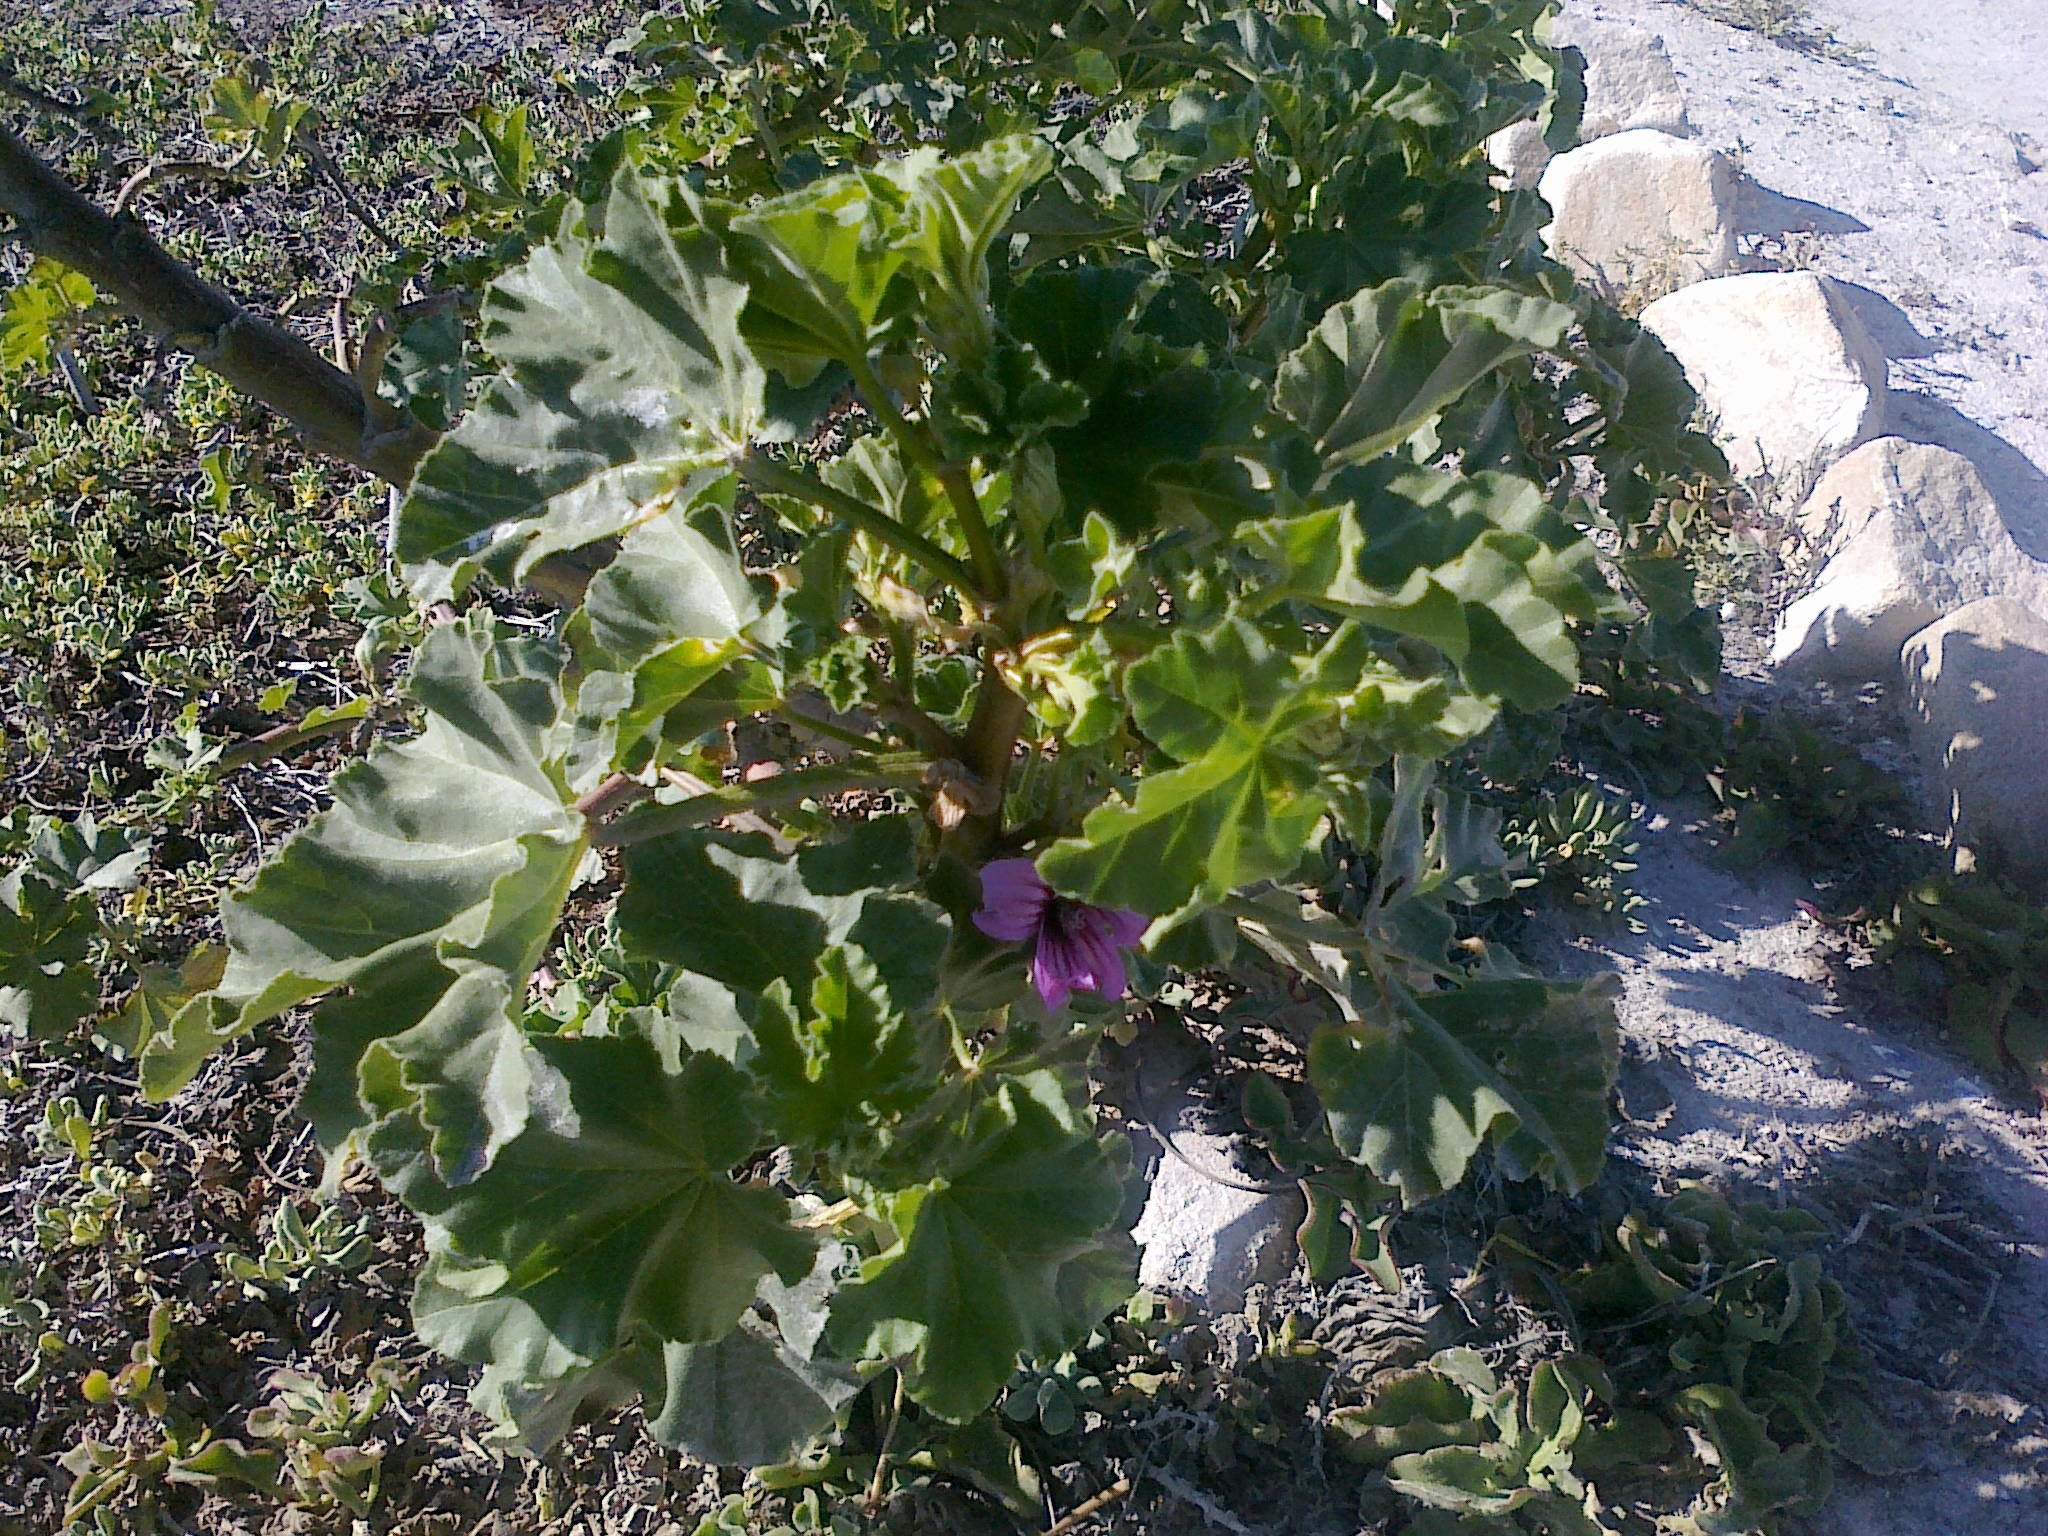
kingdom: Plantae
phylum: Tracheophyta
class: Magnoliopsida
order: Malvales
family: Malvaceae
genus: Malva
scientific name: Malva arborea
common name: Tree mallow
